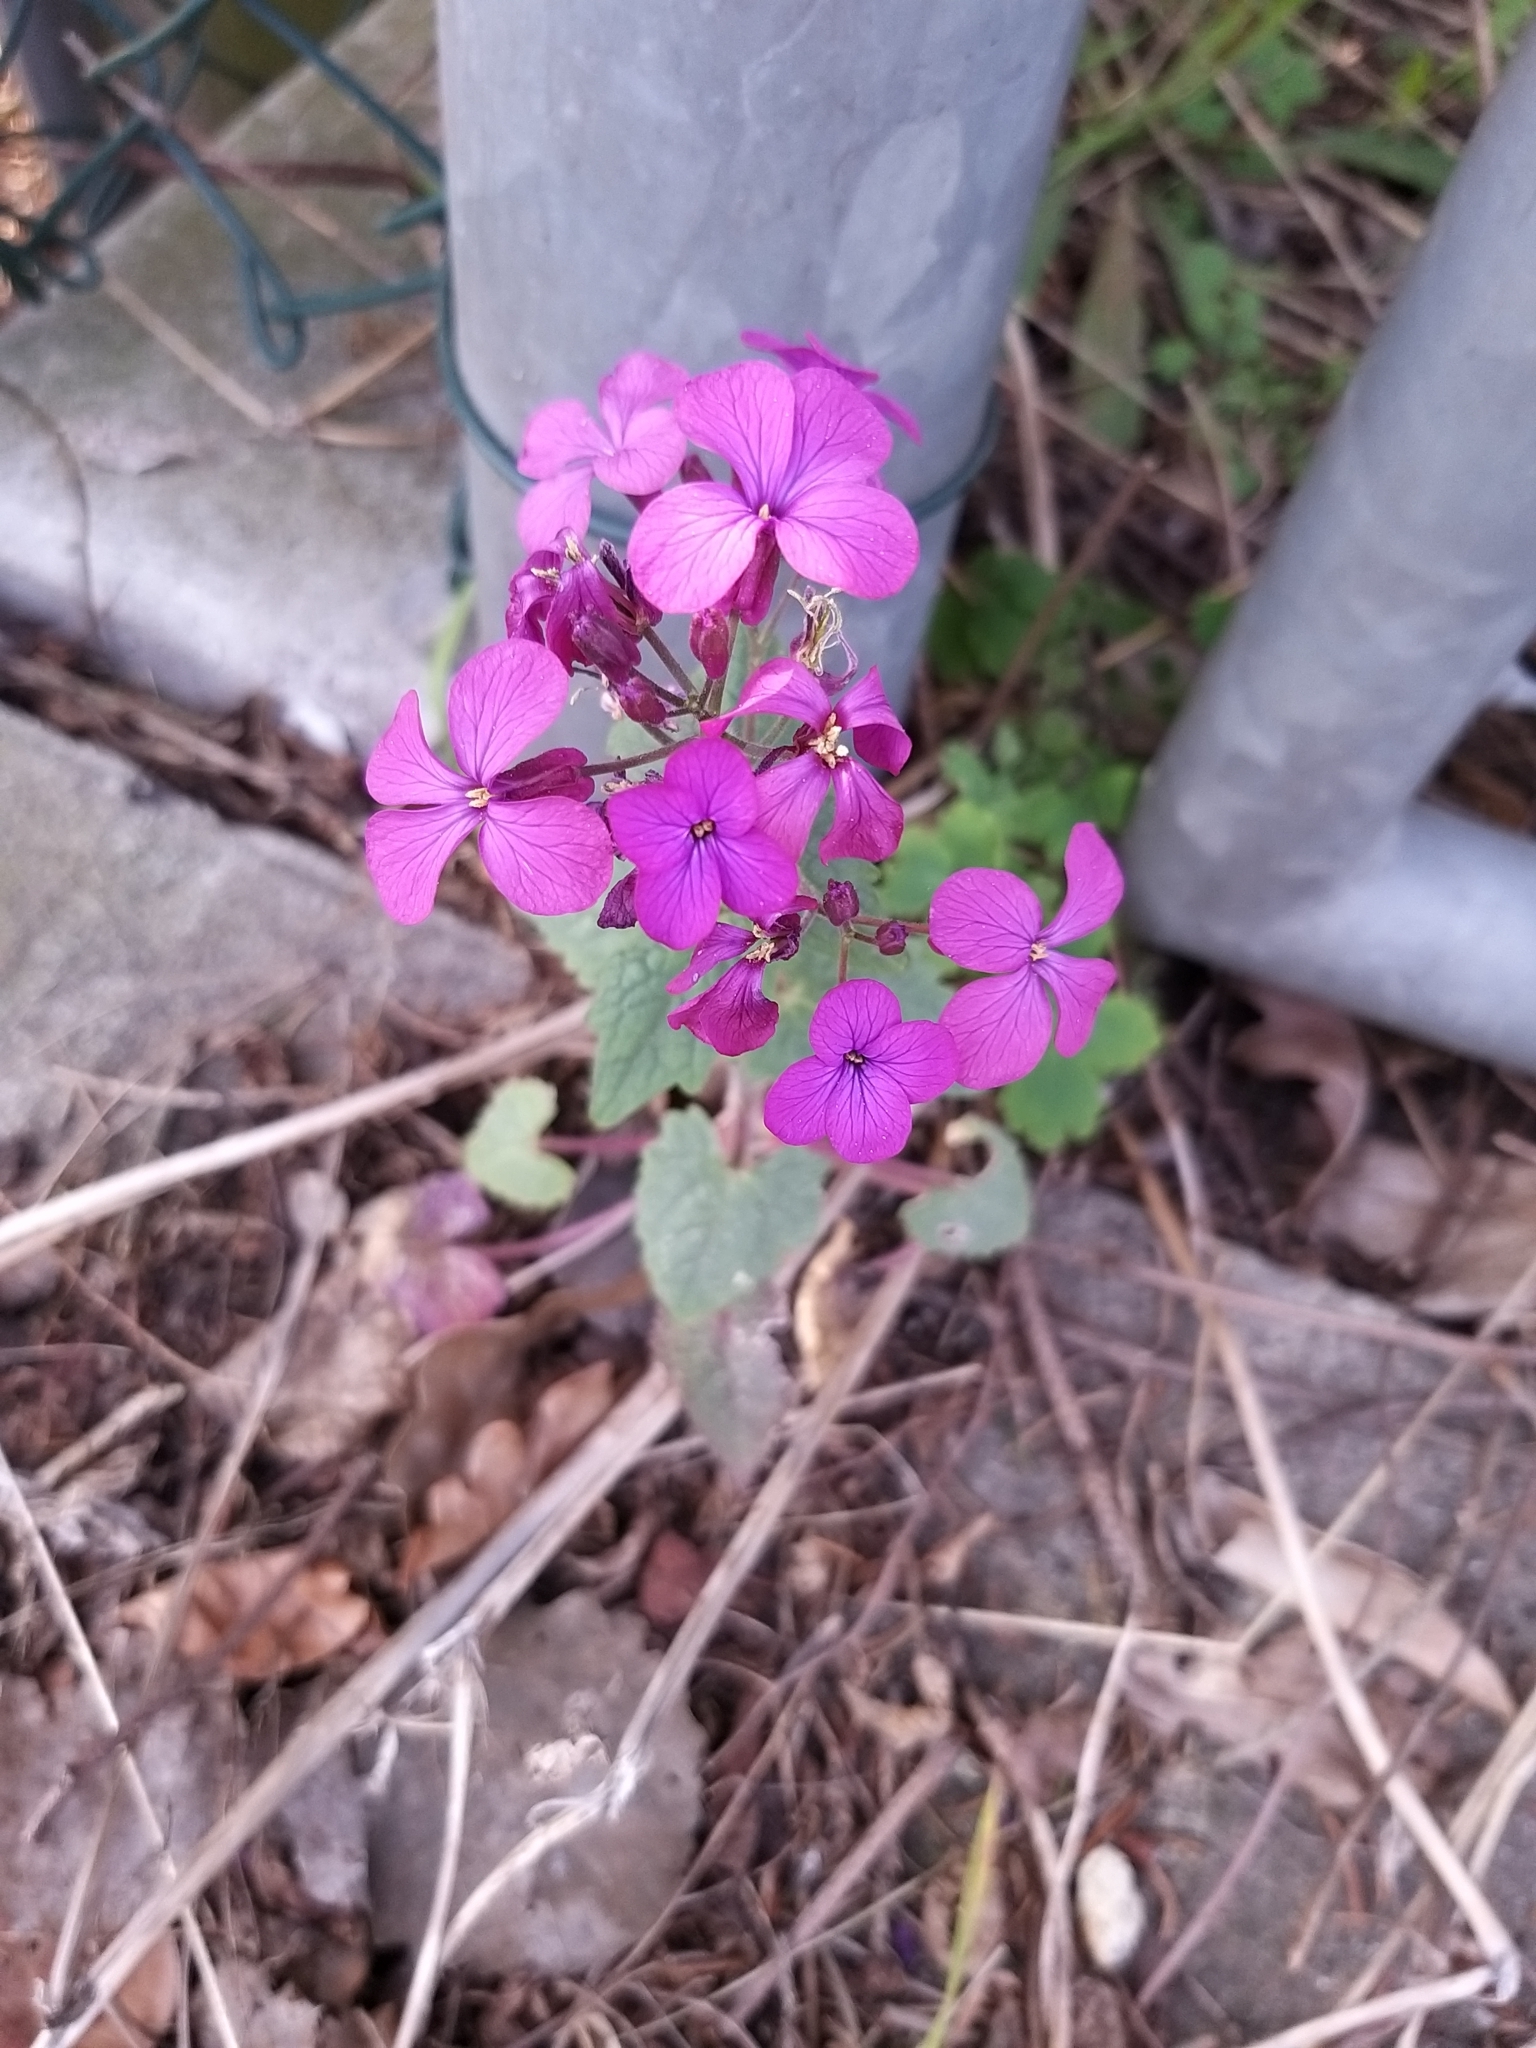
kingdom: Plantae
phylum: Tracheophyta
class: Magnoliopsida
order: Brassicales
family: Brassicaceae
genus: Lunaria
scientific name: Lunaria annua
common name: Honesty
